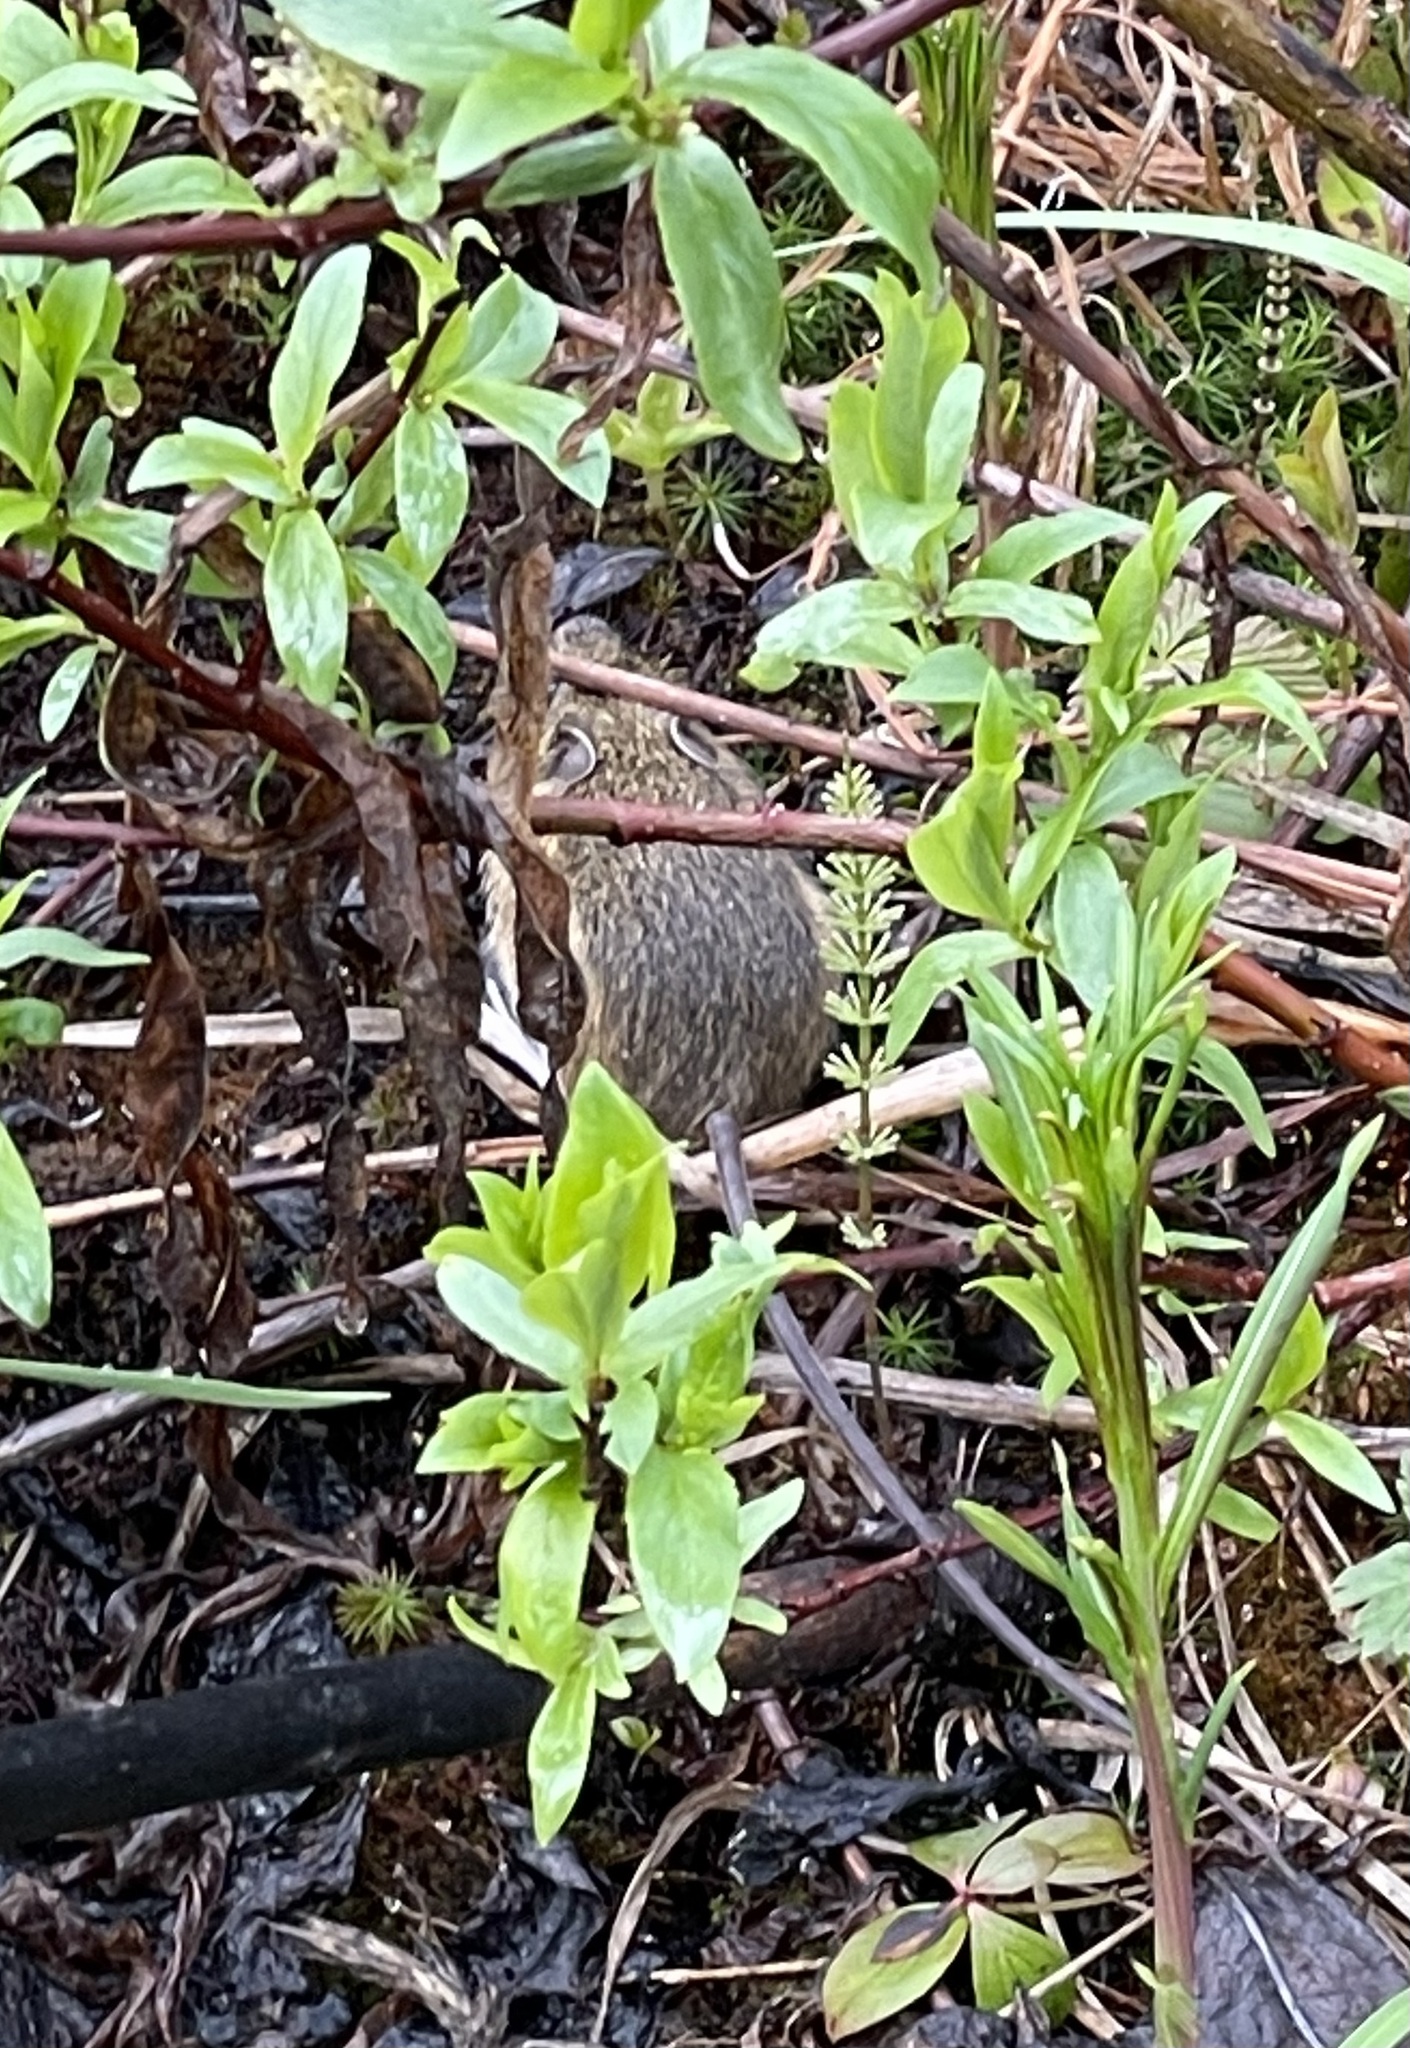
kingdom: Animalia
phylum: Chordata
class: Mammalia
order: Rodentia
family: Dipodidae
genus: Zapus
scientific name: Zapus princeps
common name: Western jumping mouse
